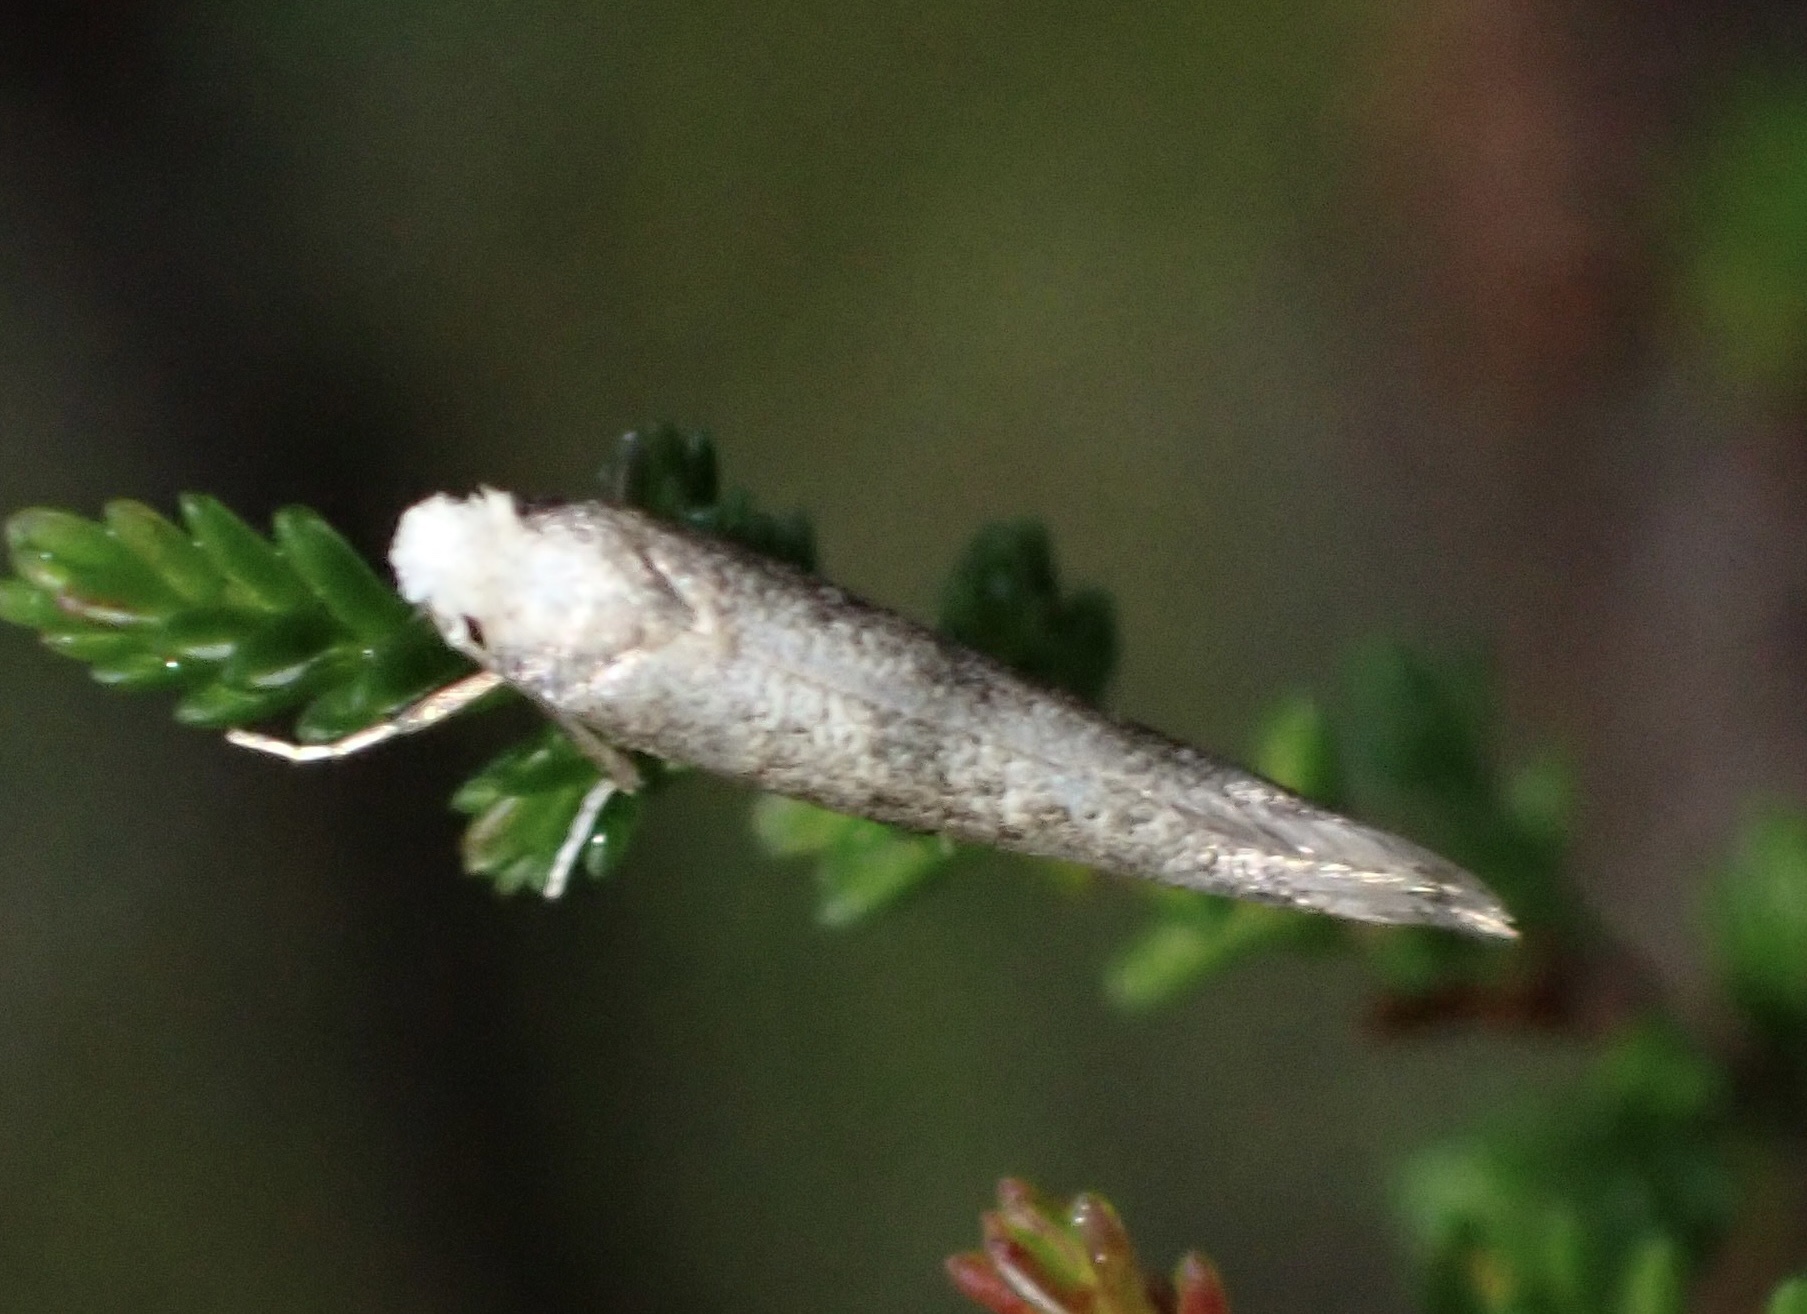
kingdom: Animalia
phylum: Arthropoda
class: Insecta
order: Lepidoptera
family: Yponomeutidae
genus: Swammerdamia
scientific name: Swammerdamia
